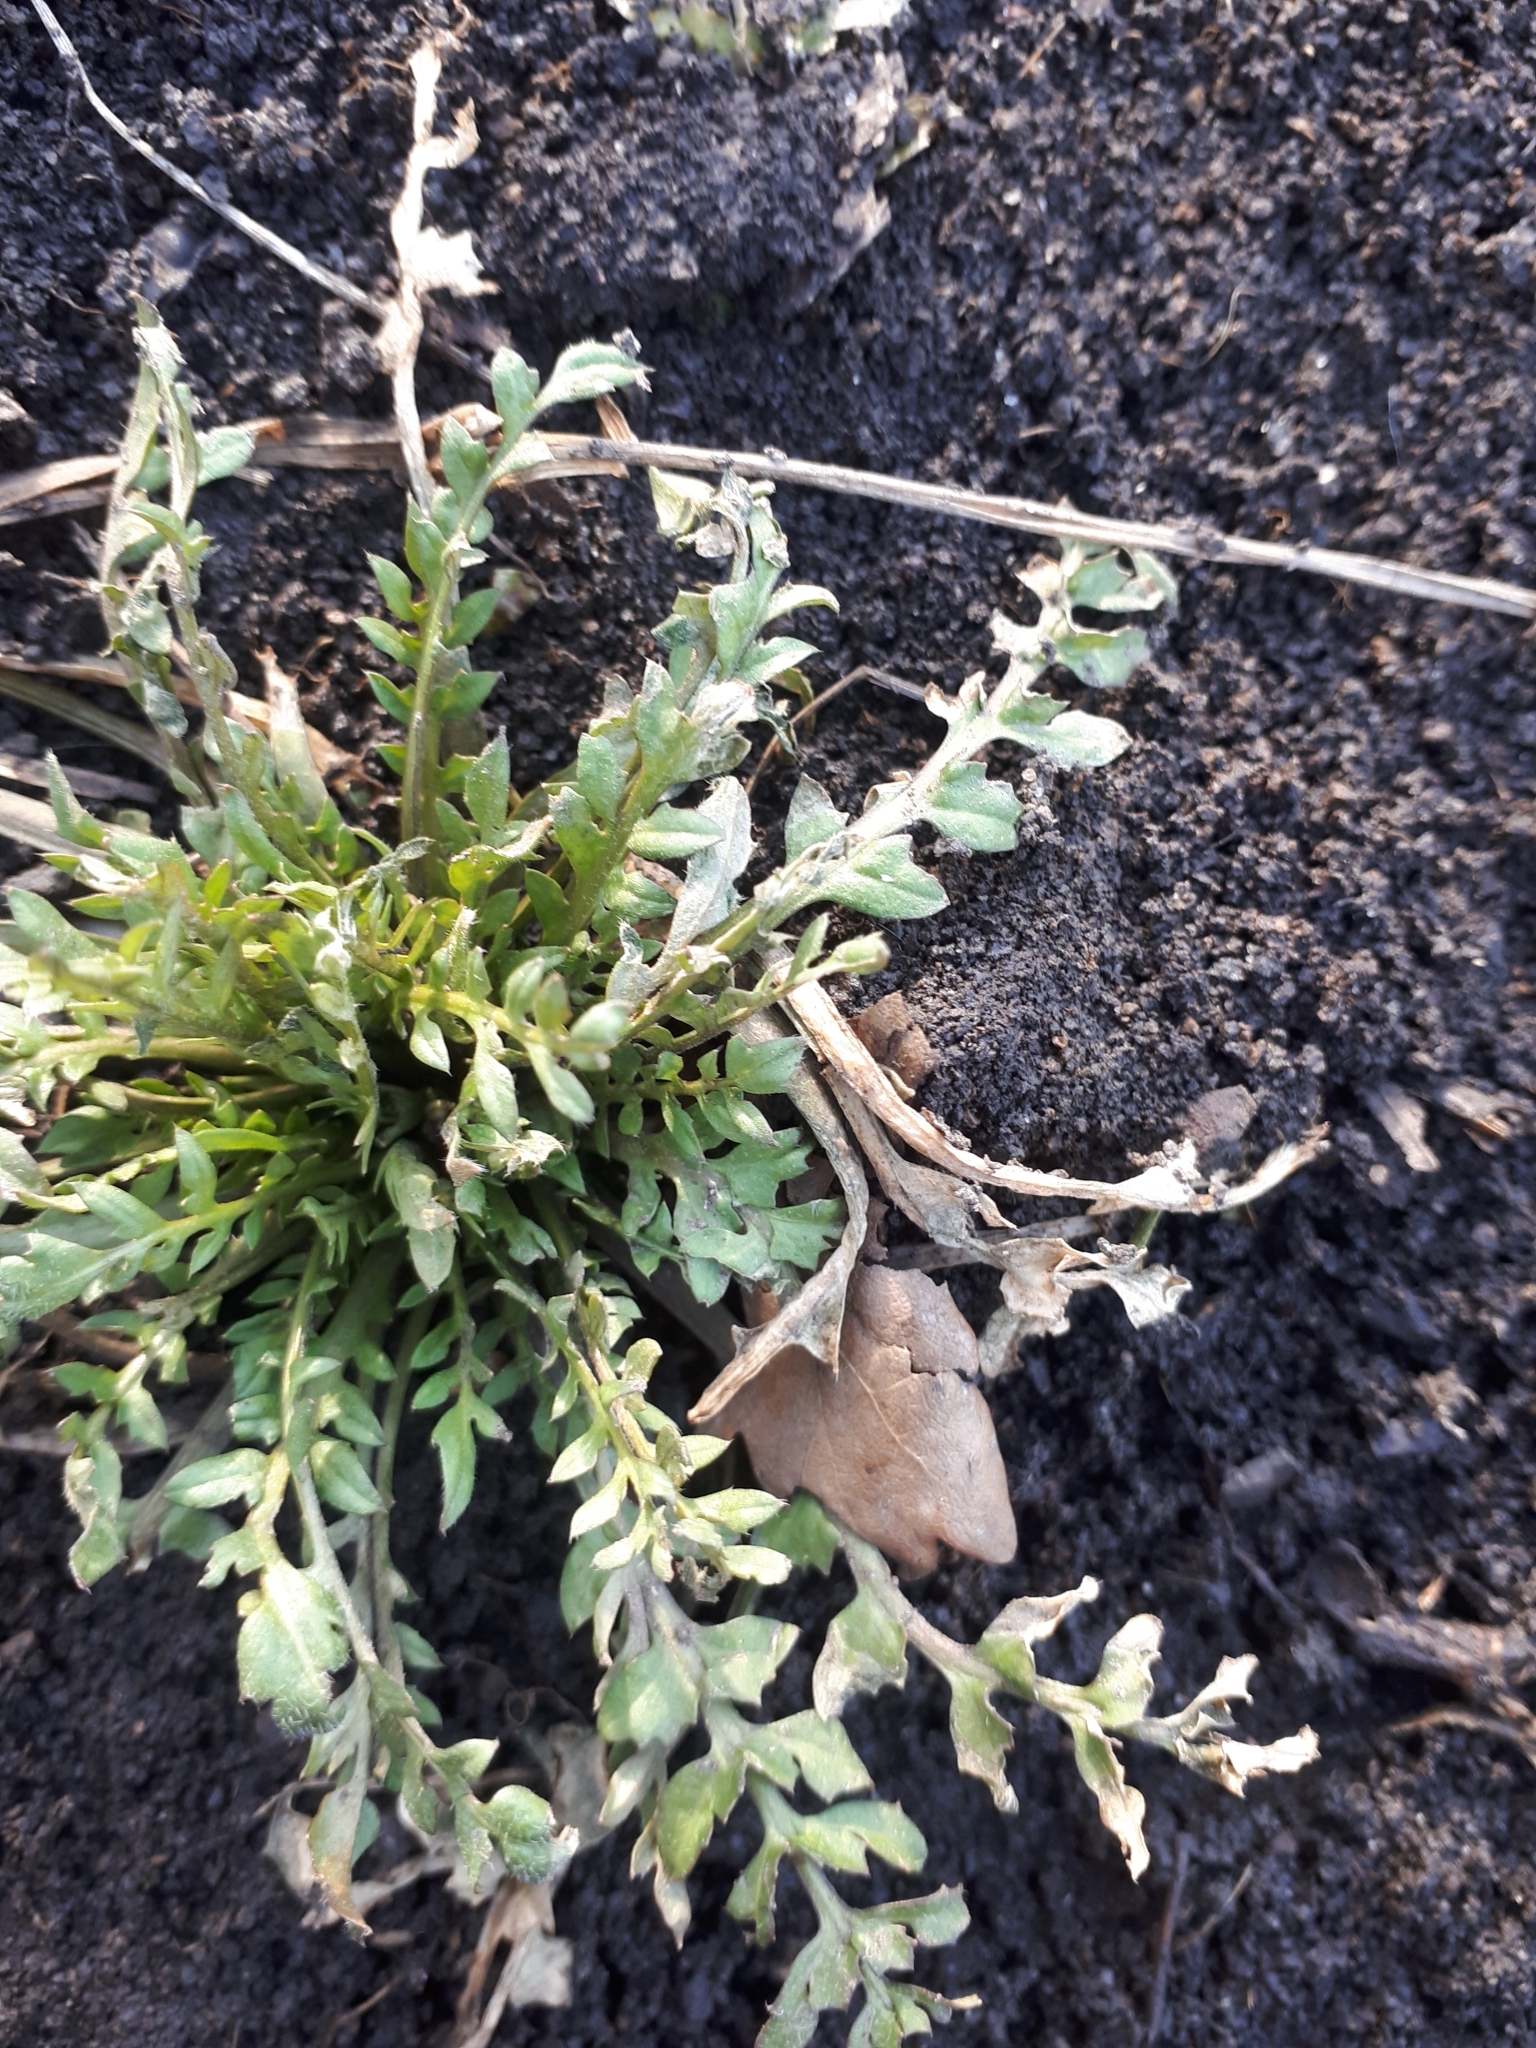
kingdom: Plantae
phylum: Tracheophyta
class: Magnoliopsida
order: Brassicales
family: Brassicaceae
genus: Capsella
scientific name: Capsella bursa-pastoris
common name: Shepherd's purse
